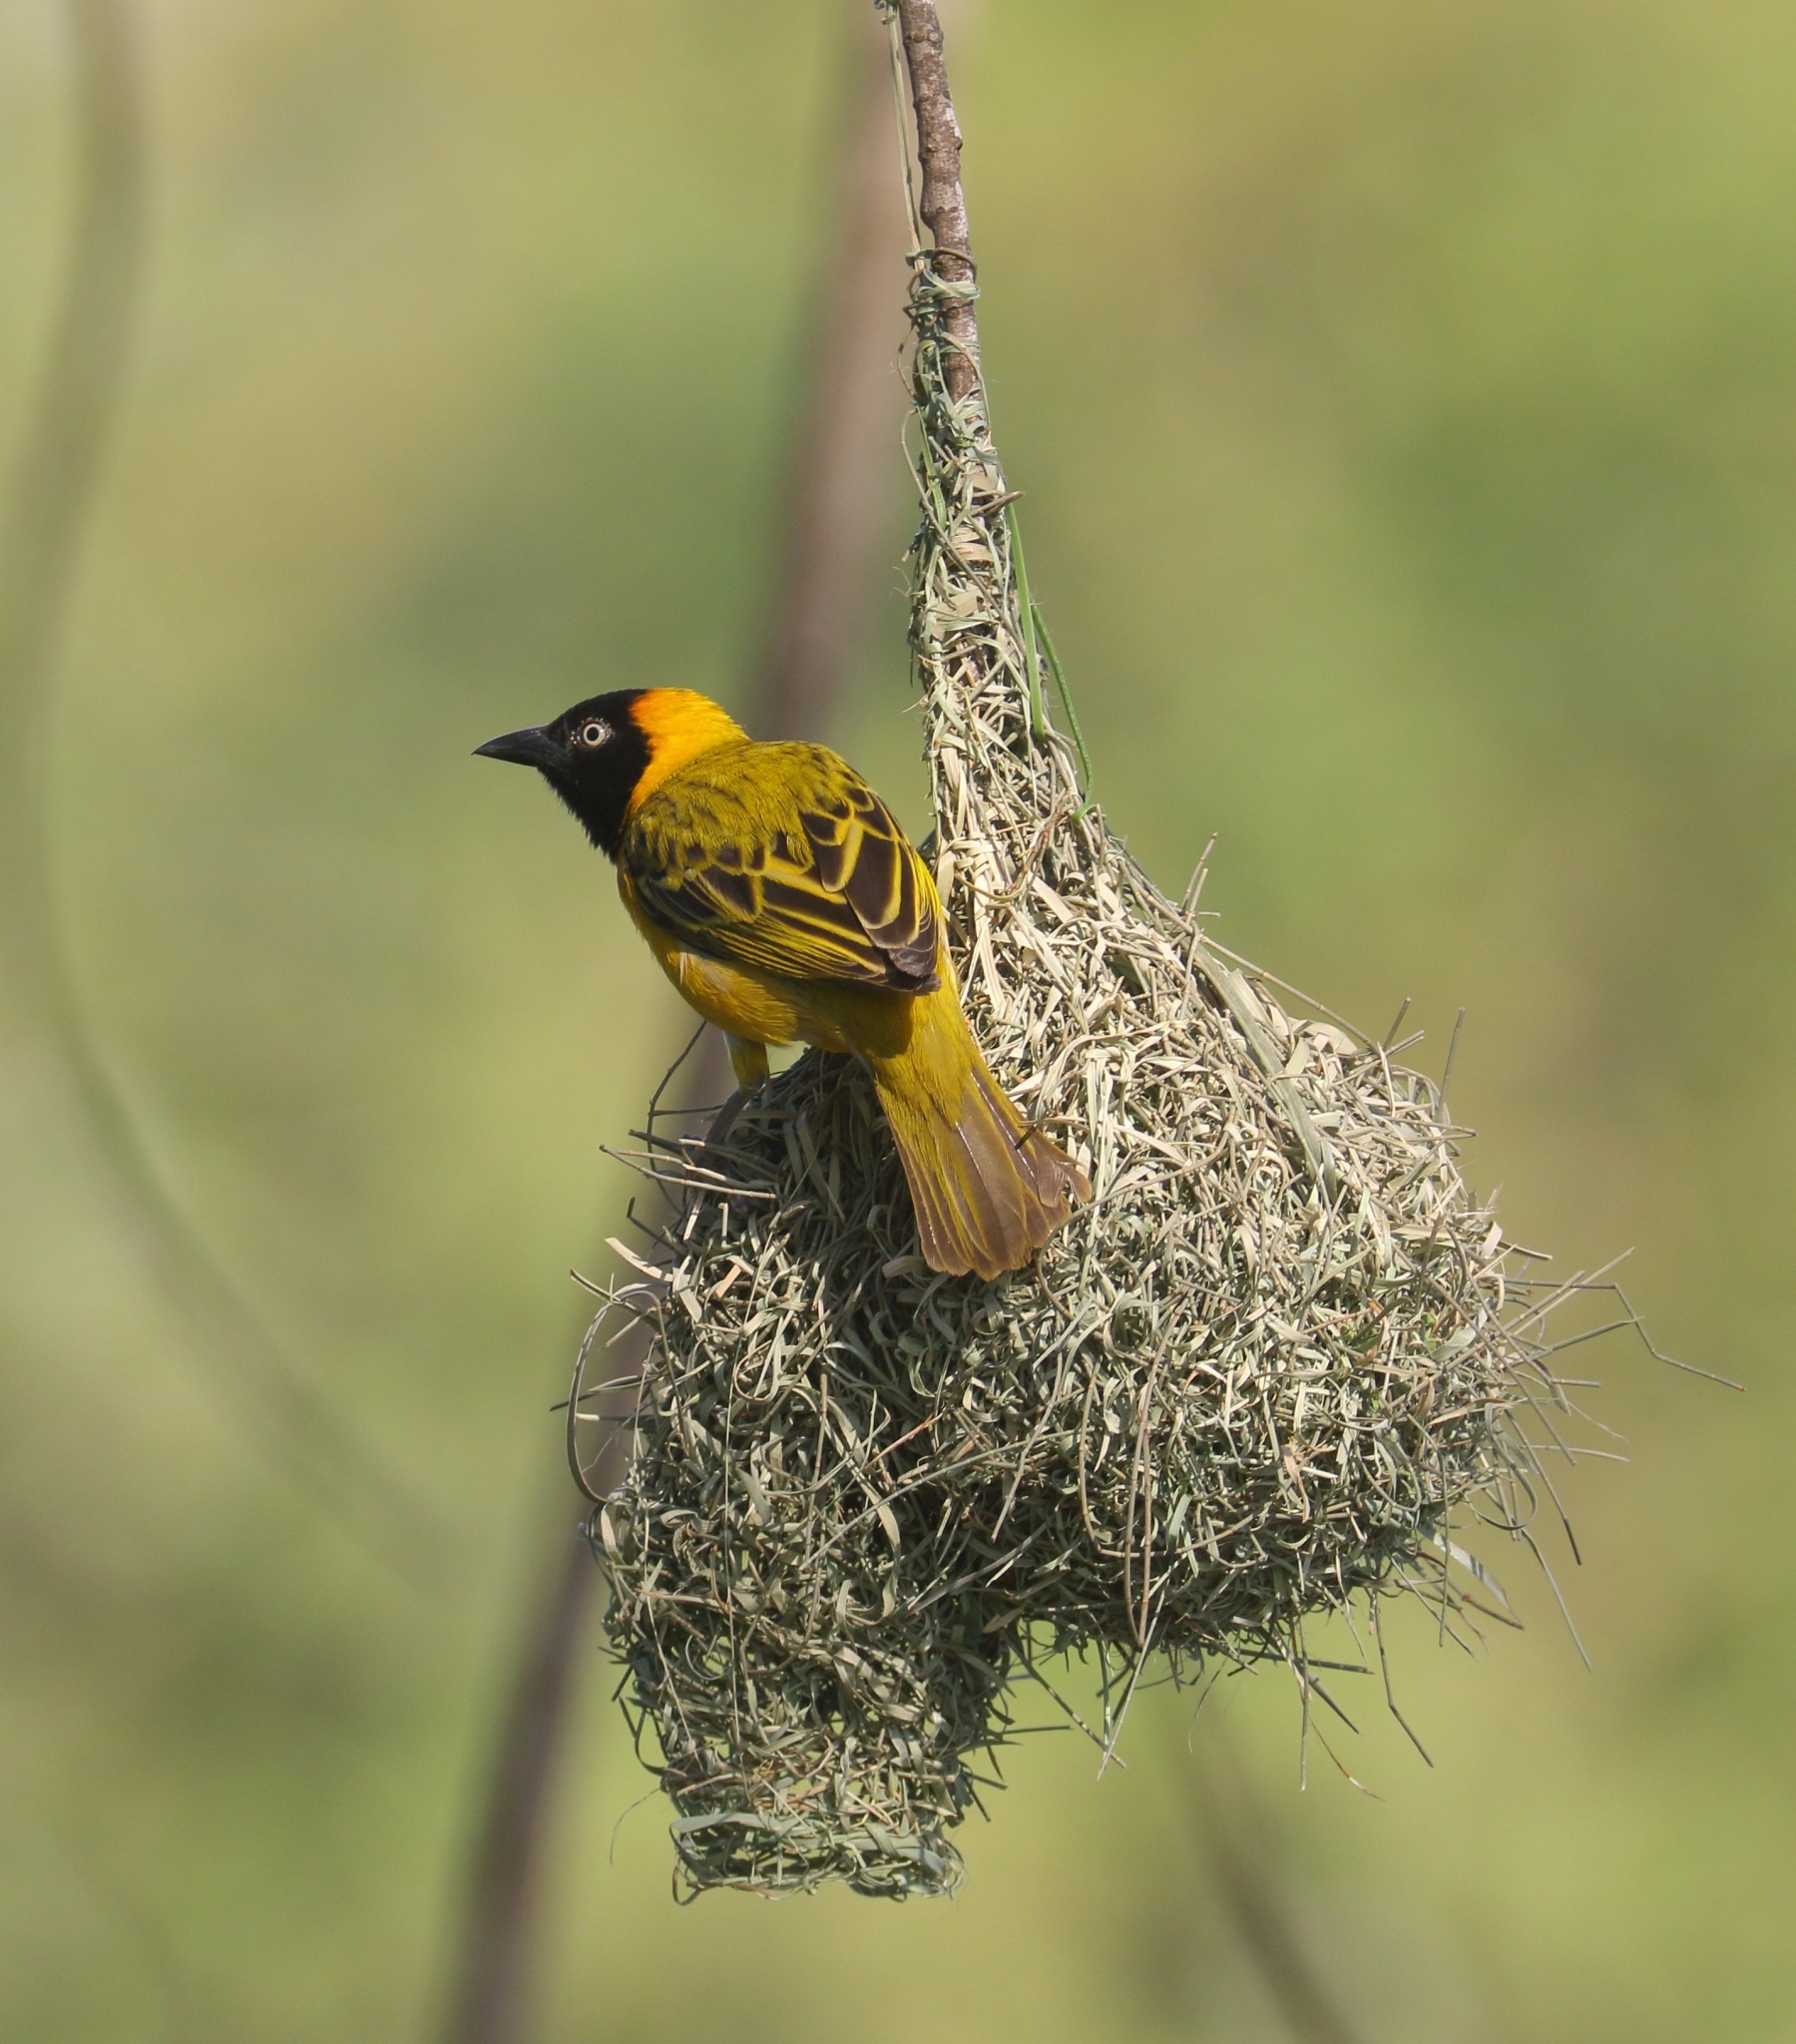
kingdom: Animalia
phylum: Chordata
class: Aves
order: Passeriformes
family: Ploceidae
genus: Ploceus
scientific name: Ploceus intermedius
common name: Lesser masked weaver
